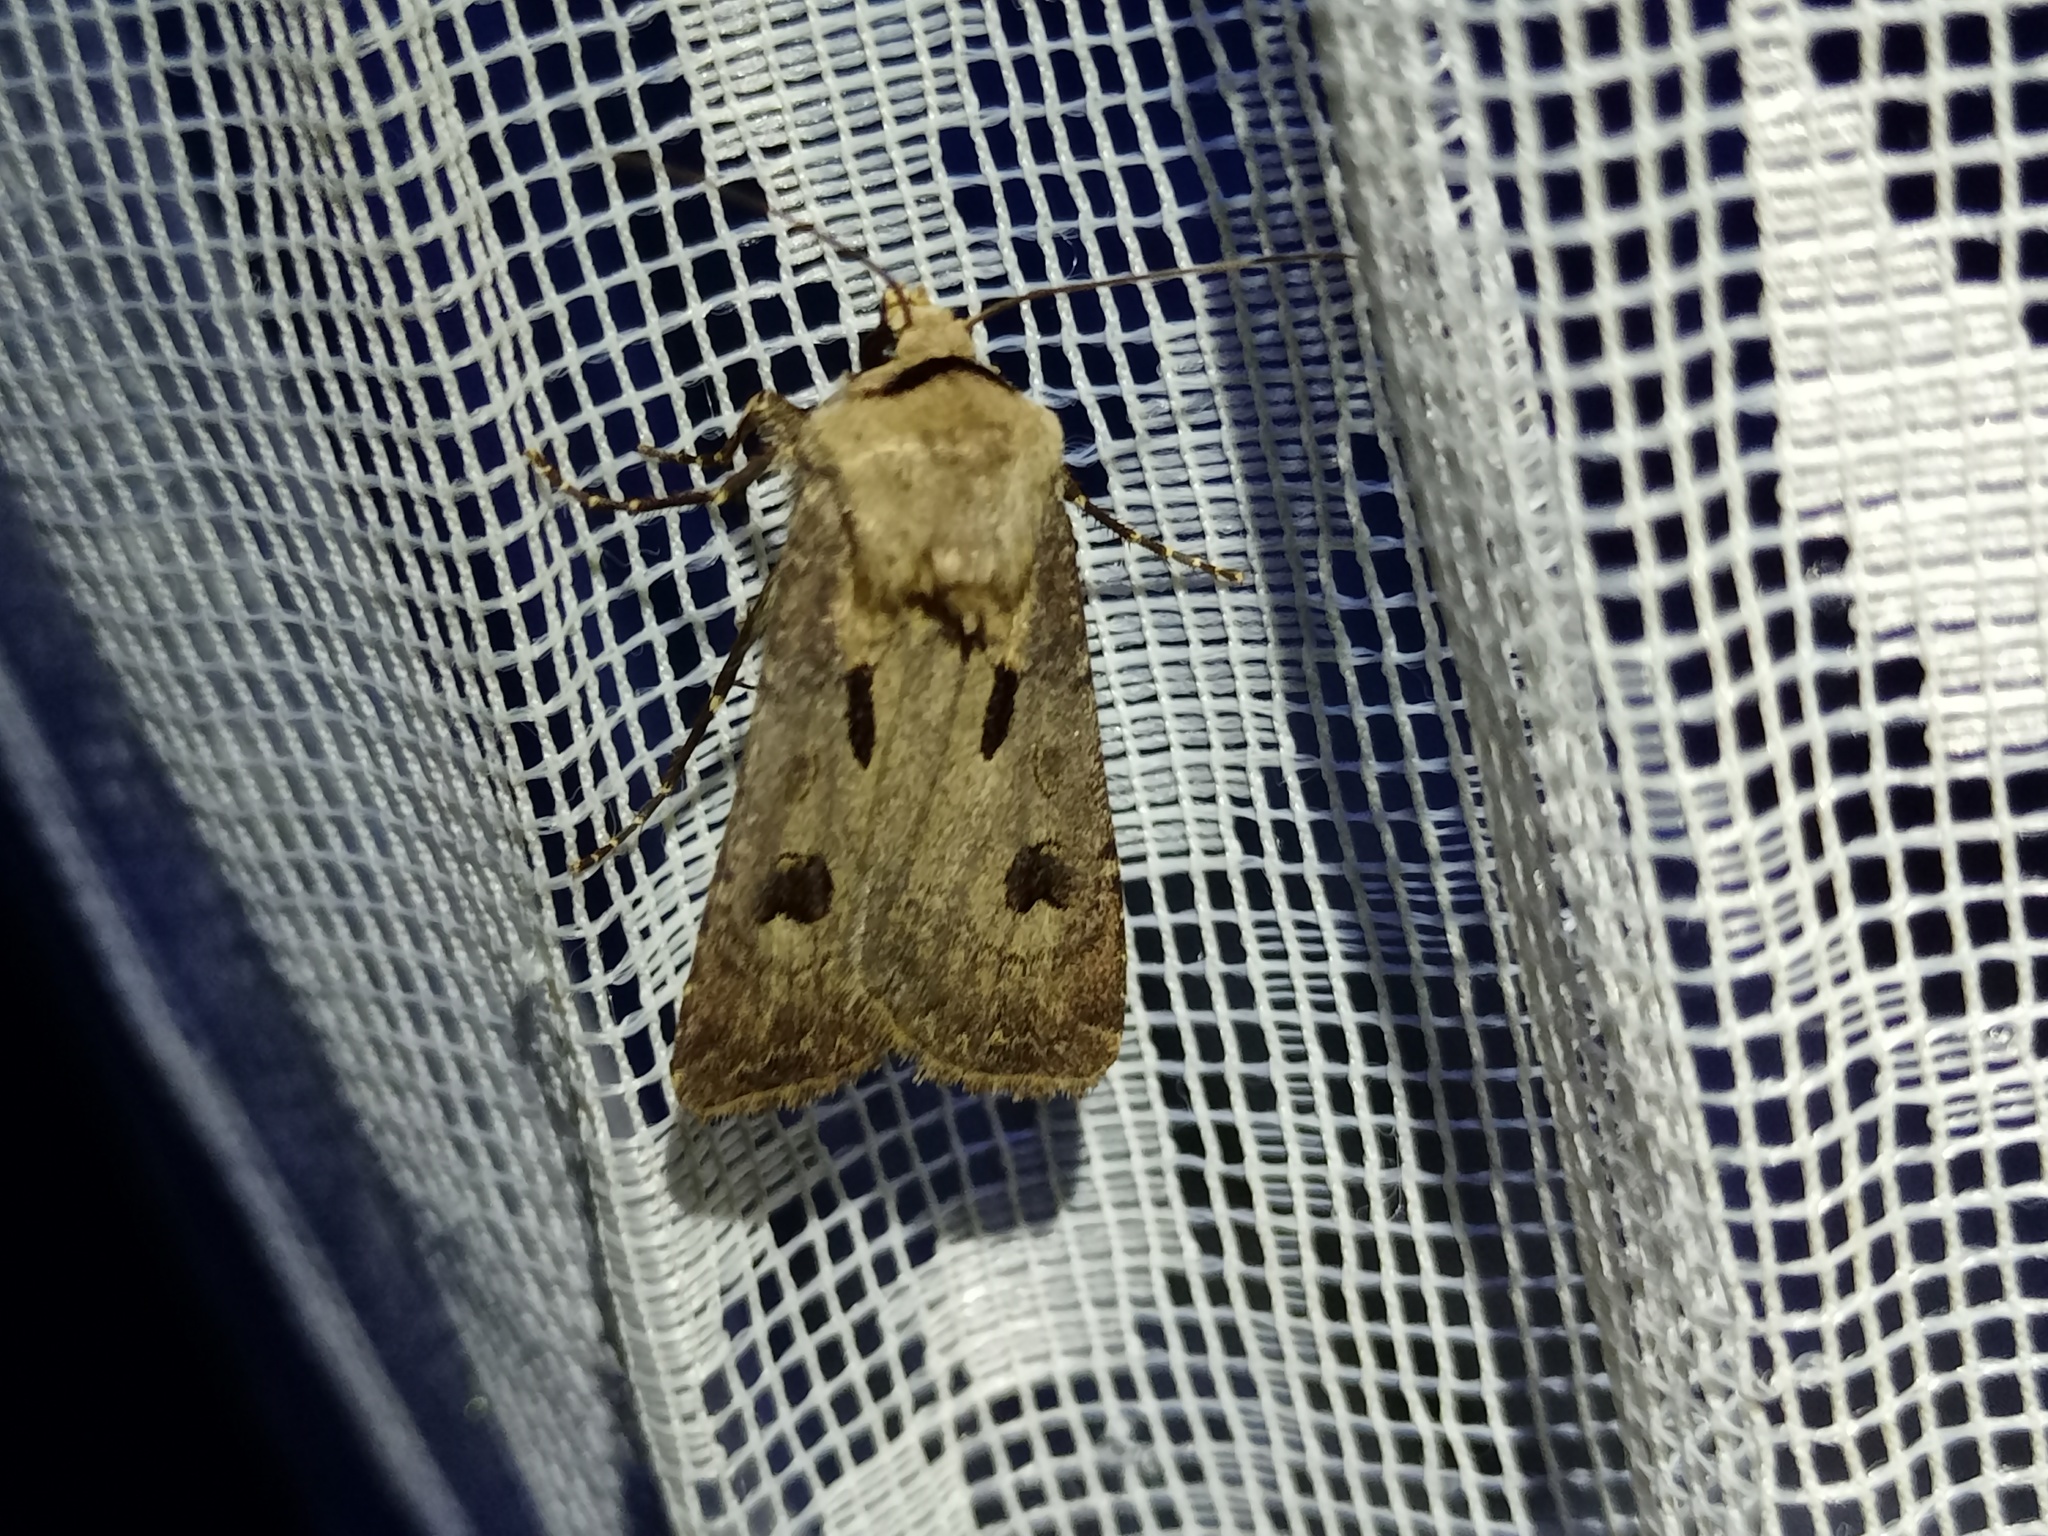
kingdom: Animalia
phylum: Arthropoda
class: Insecta
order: Lepidoptera
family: Noctuidae
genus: Agrotis
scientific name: Agrotis exclamationis
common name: Heart and dart
